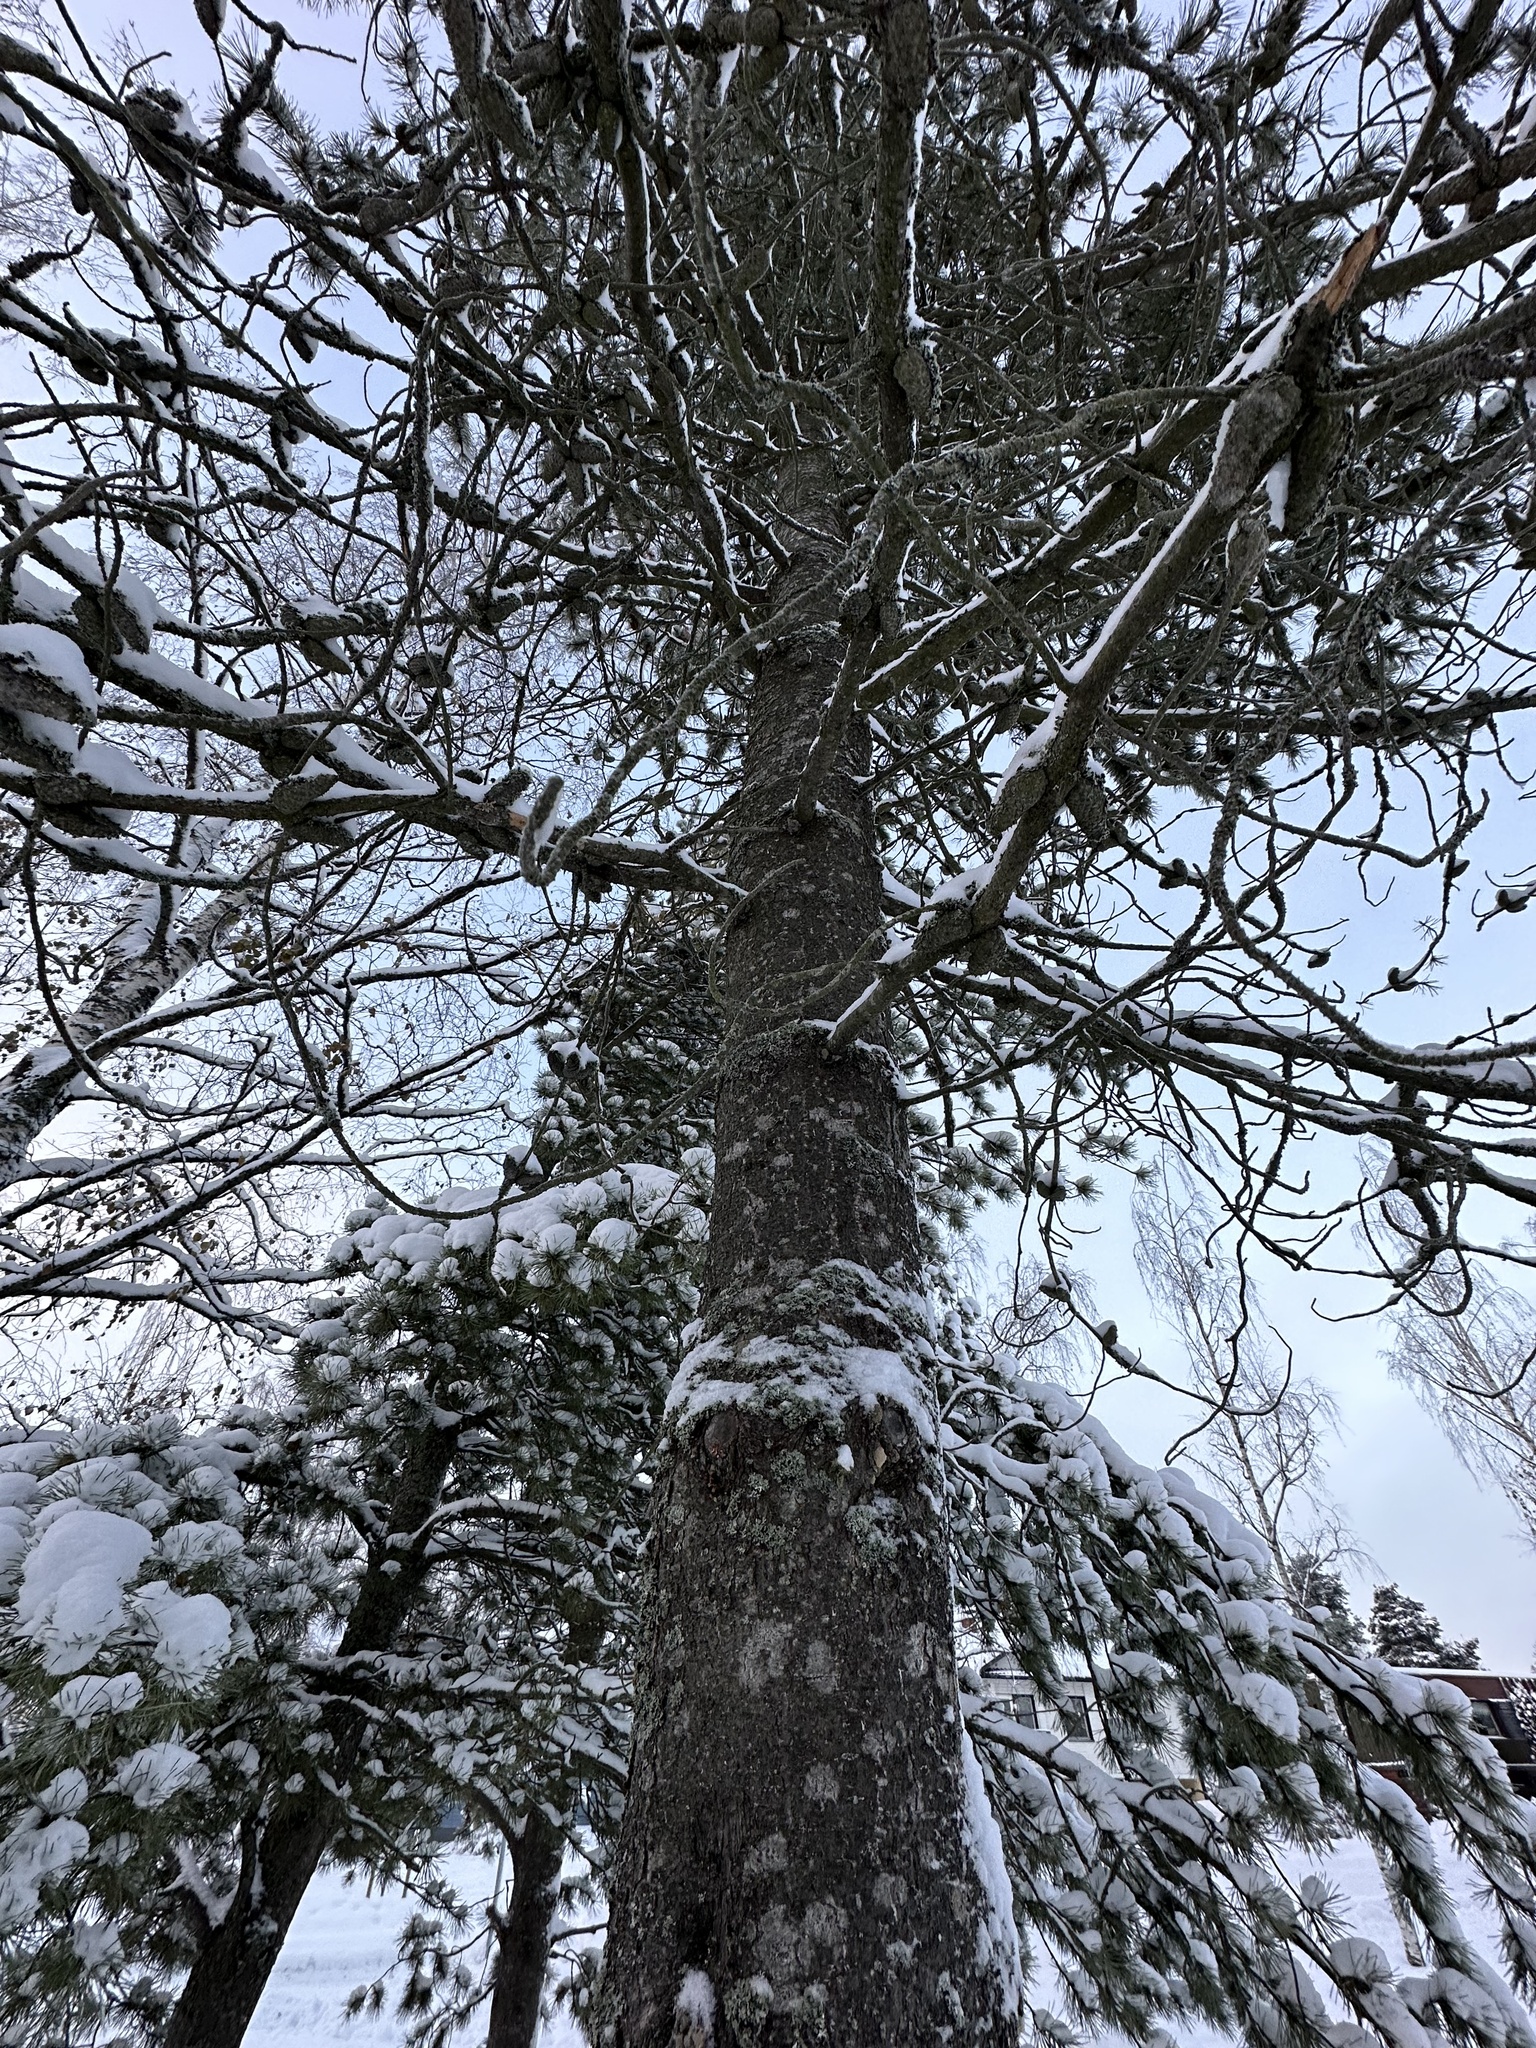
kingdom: Plantae
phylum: Tracheophyta
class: Pinopsida
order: Pinales
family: Pinaceae
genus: Pinus
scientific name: Pinus sylvestris
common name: Scots pine
